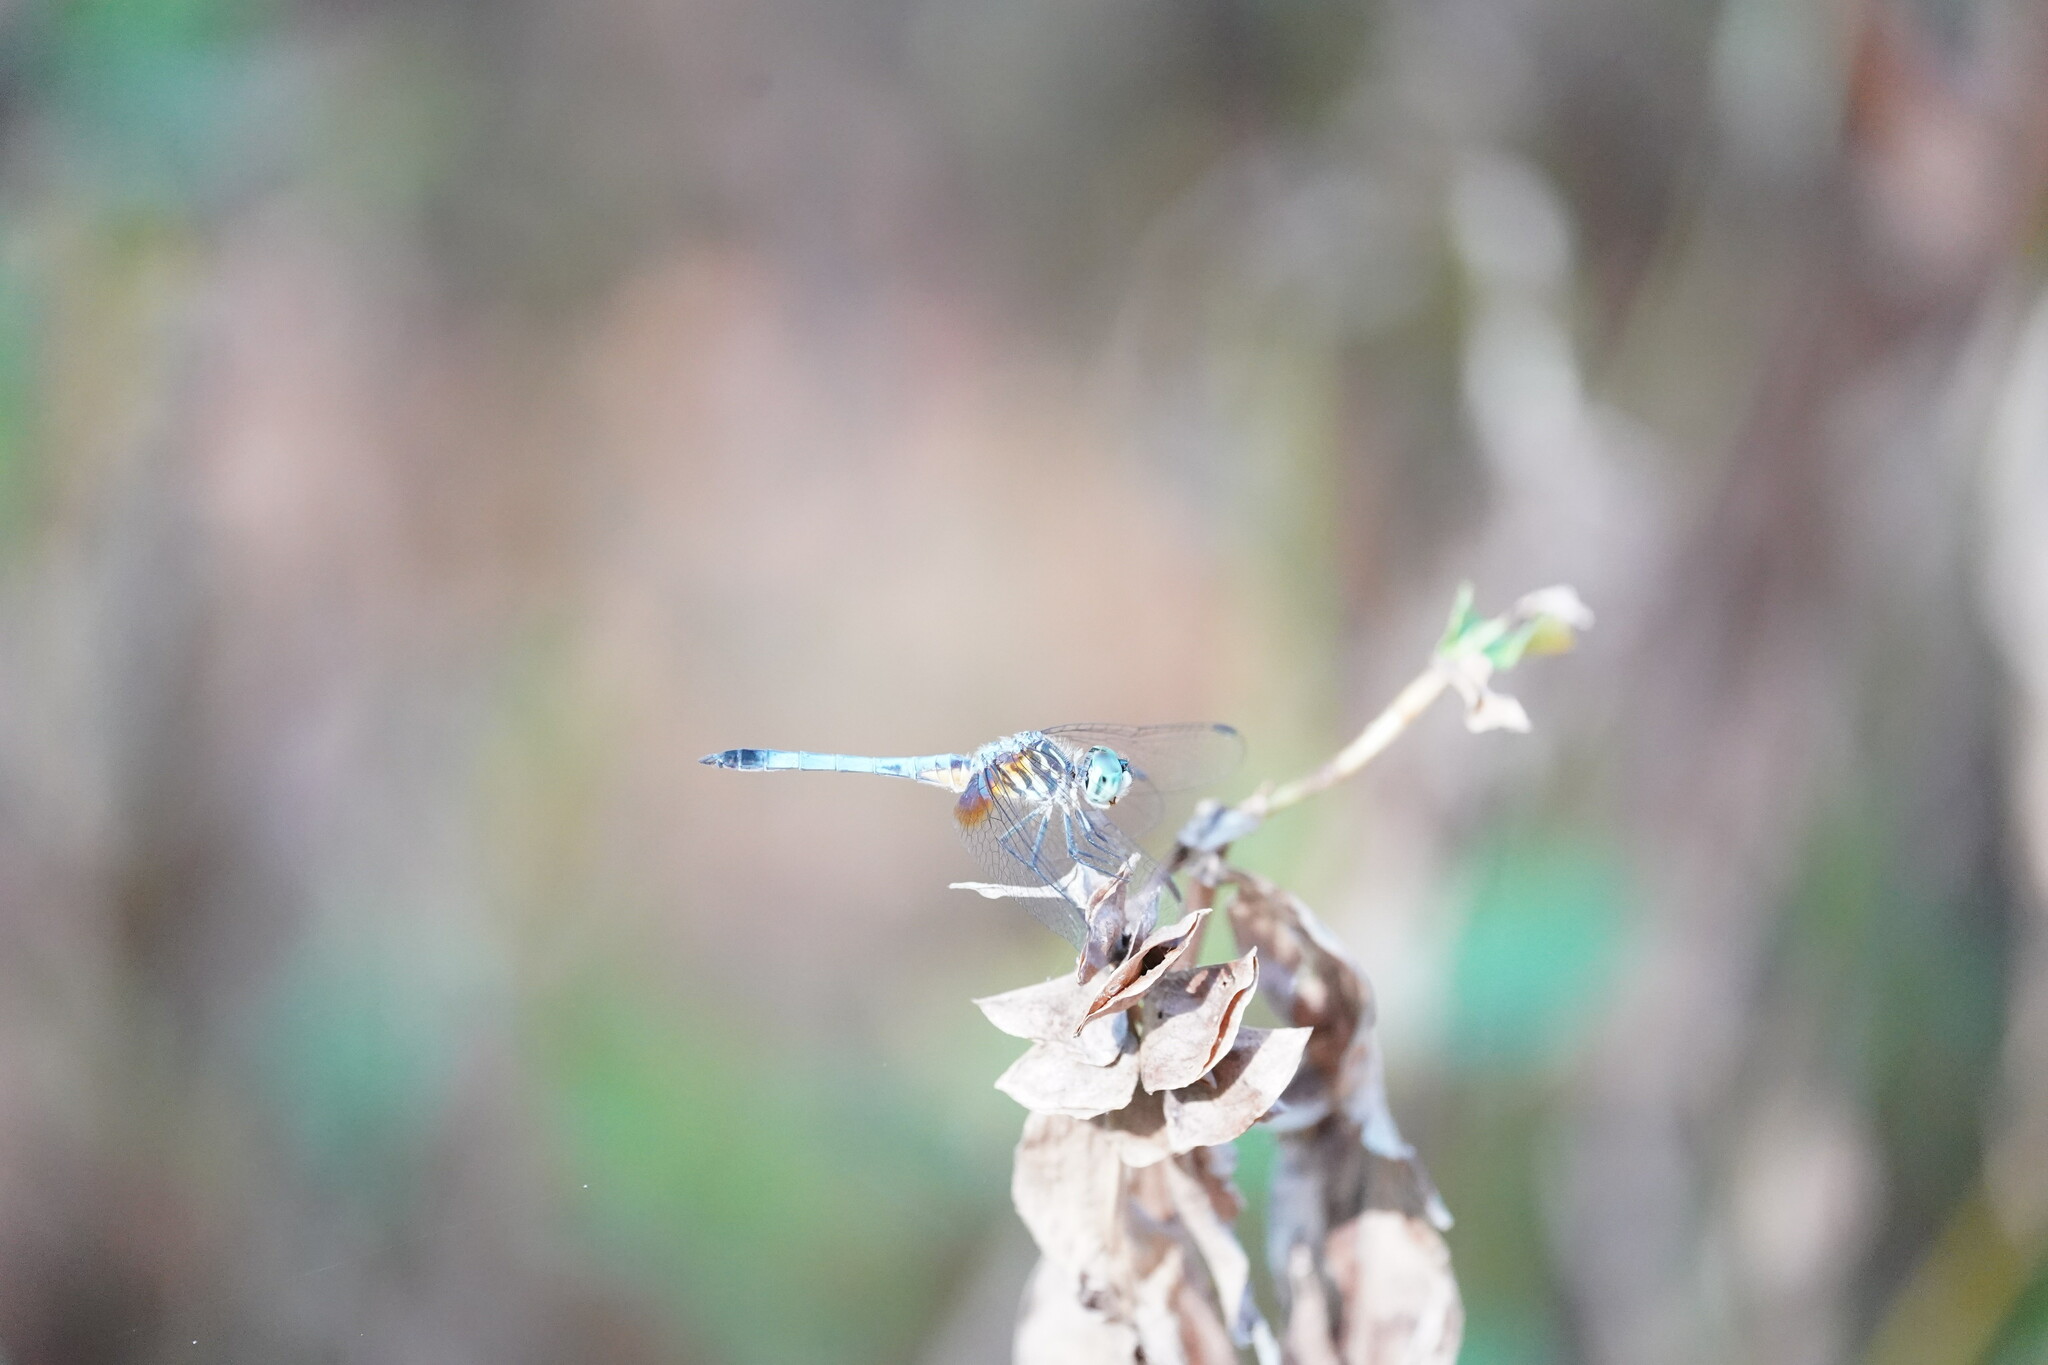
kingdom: Animalia
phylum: Arthropoda
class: Insecta
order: Odonata
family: Libellulidae
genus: Pachydiplax
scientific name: Pachydiplax longipennis
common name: Blue dasher
